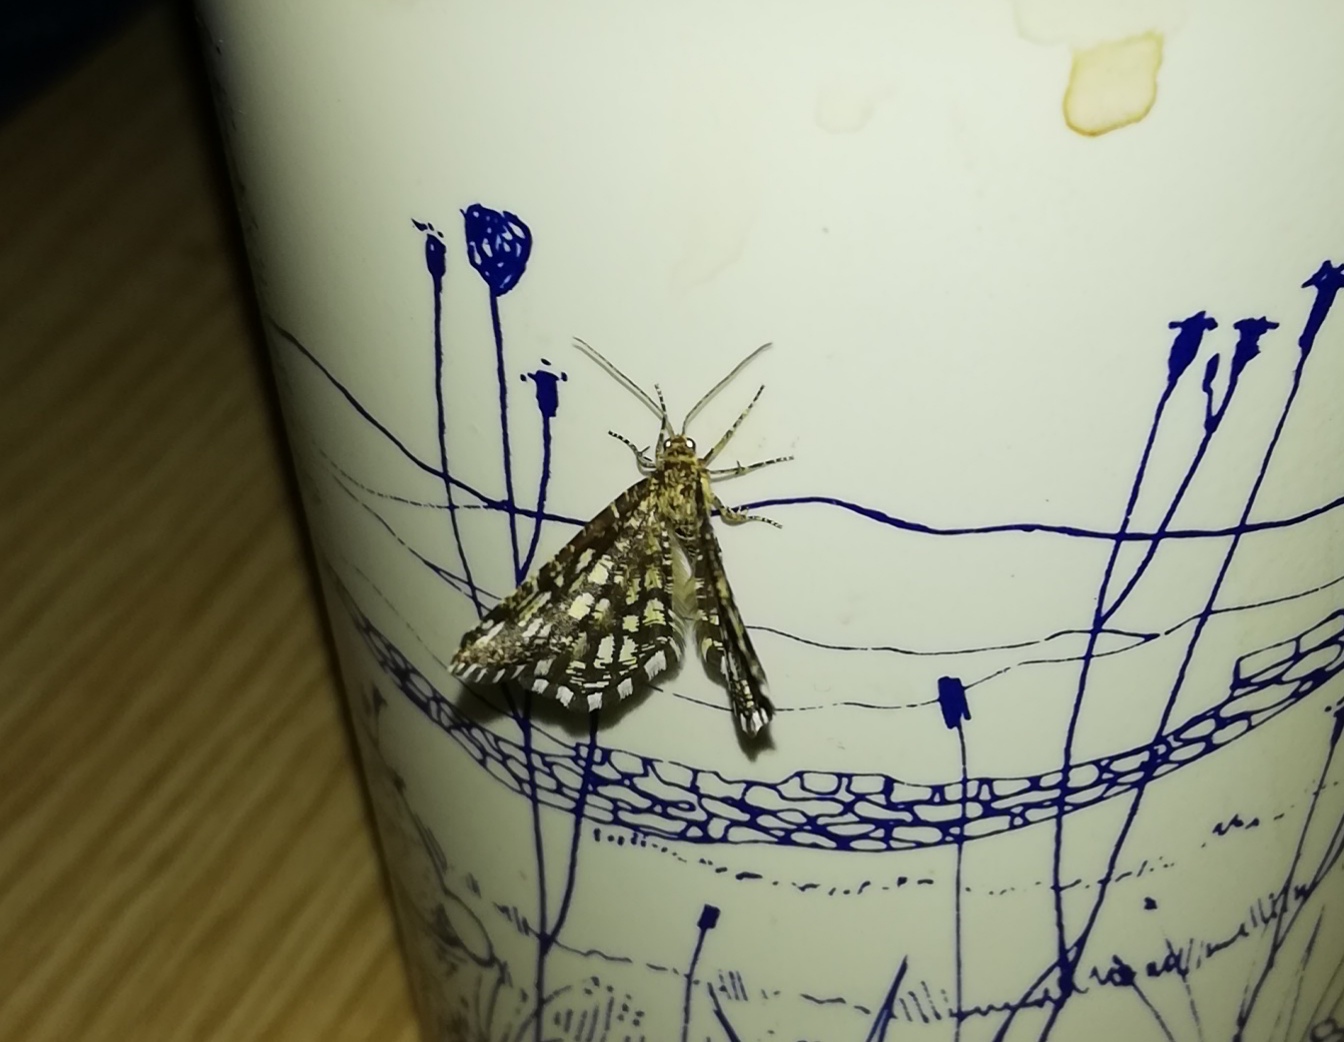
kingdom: Animalia
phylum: Arthropoda
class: Insecta
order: Lepidoptera
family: Geometridae
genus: Chiasmia
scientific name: Chiasmia clathrata
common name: Latticed heath
